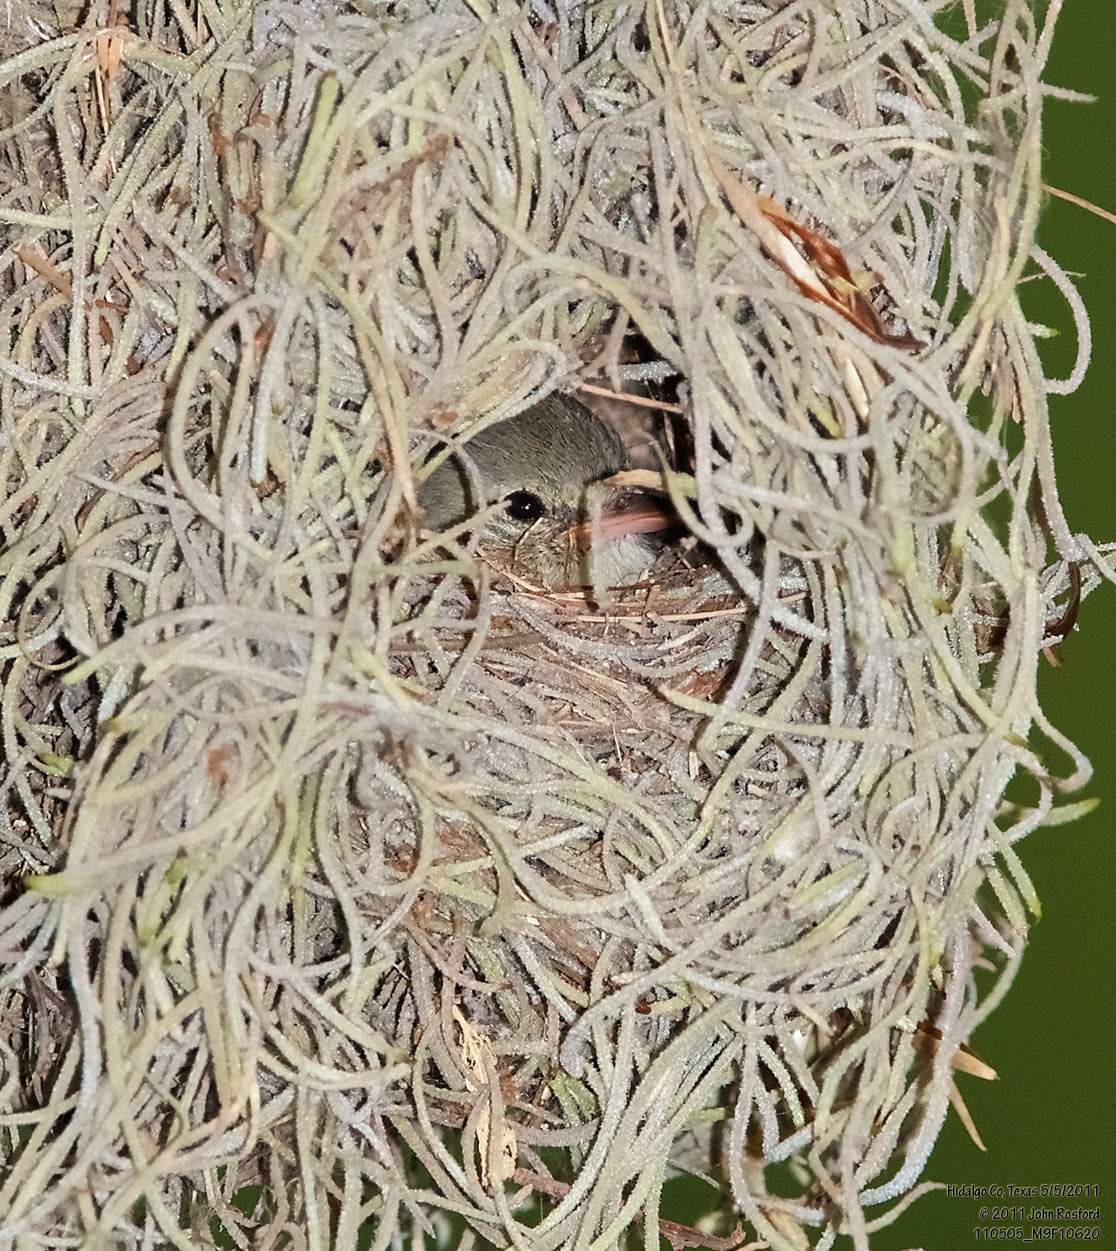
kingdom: Animalia
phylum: Chordata
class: Aves
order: Passeriformes
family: Tyrannidae
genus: Camptostoma
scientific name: Camptostoma imberbe
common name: Northern beardless-tyrannulet
